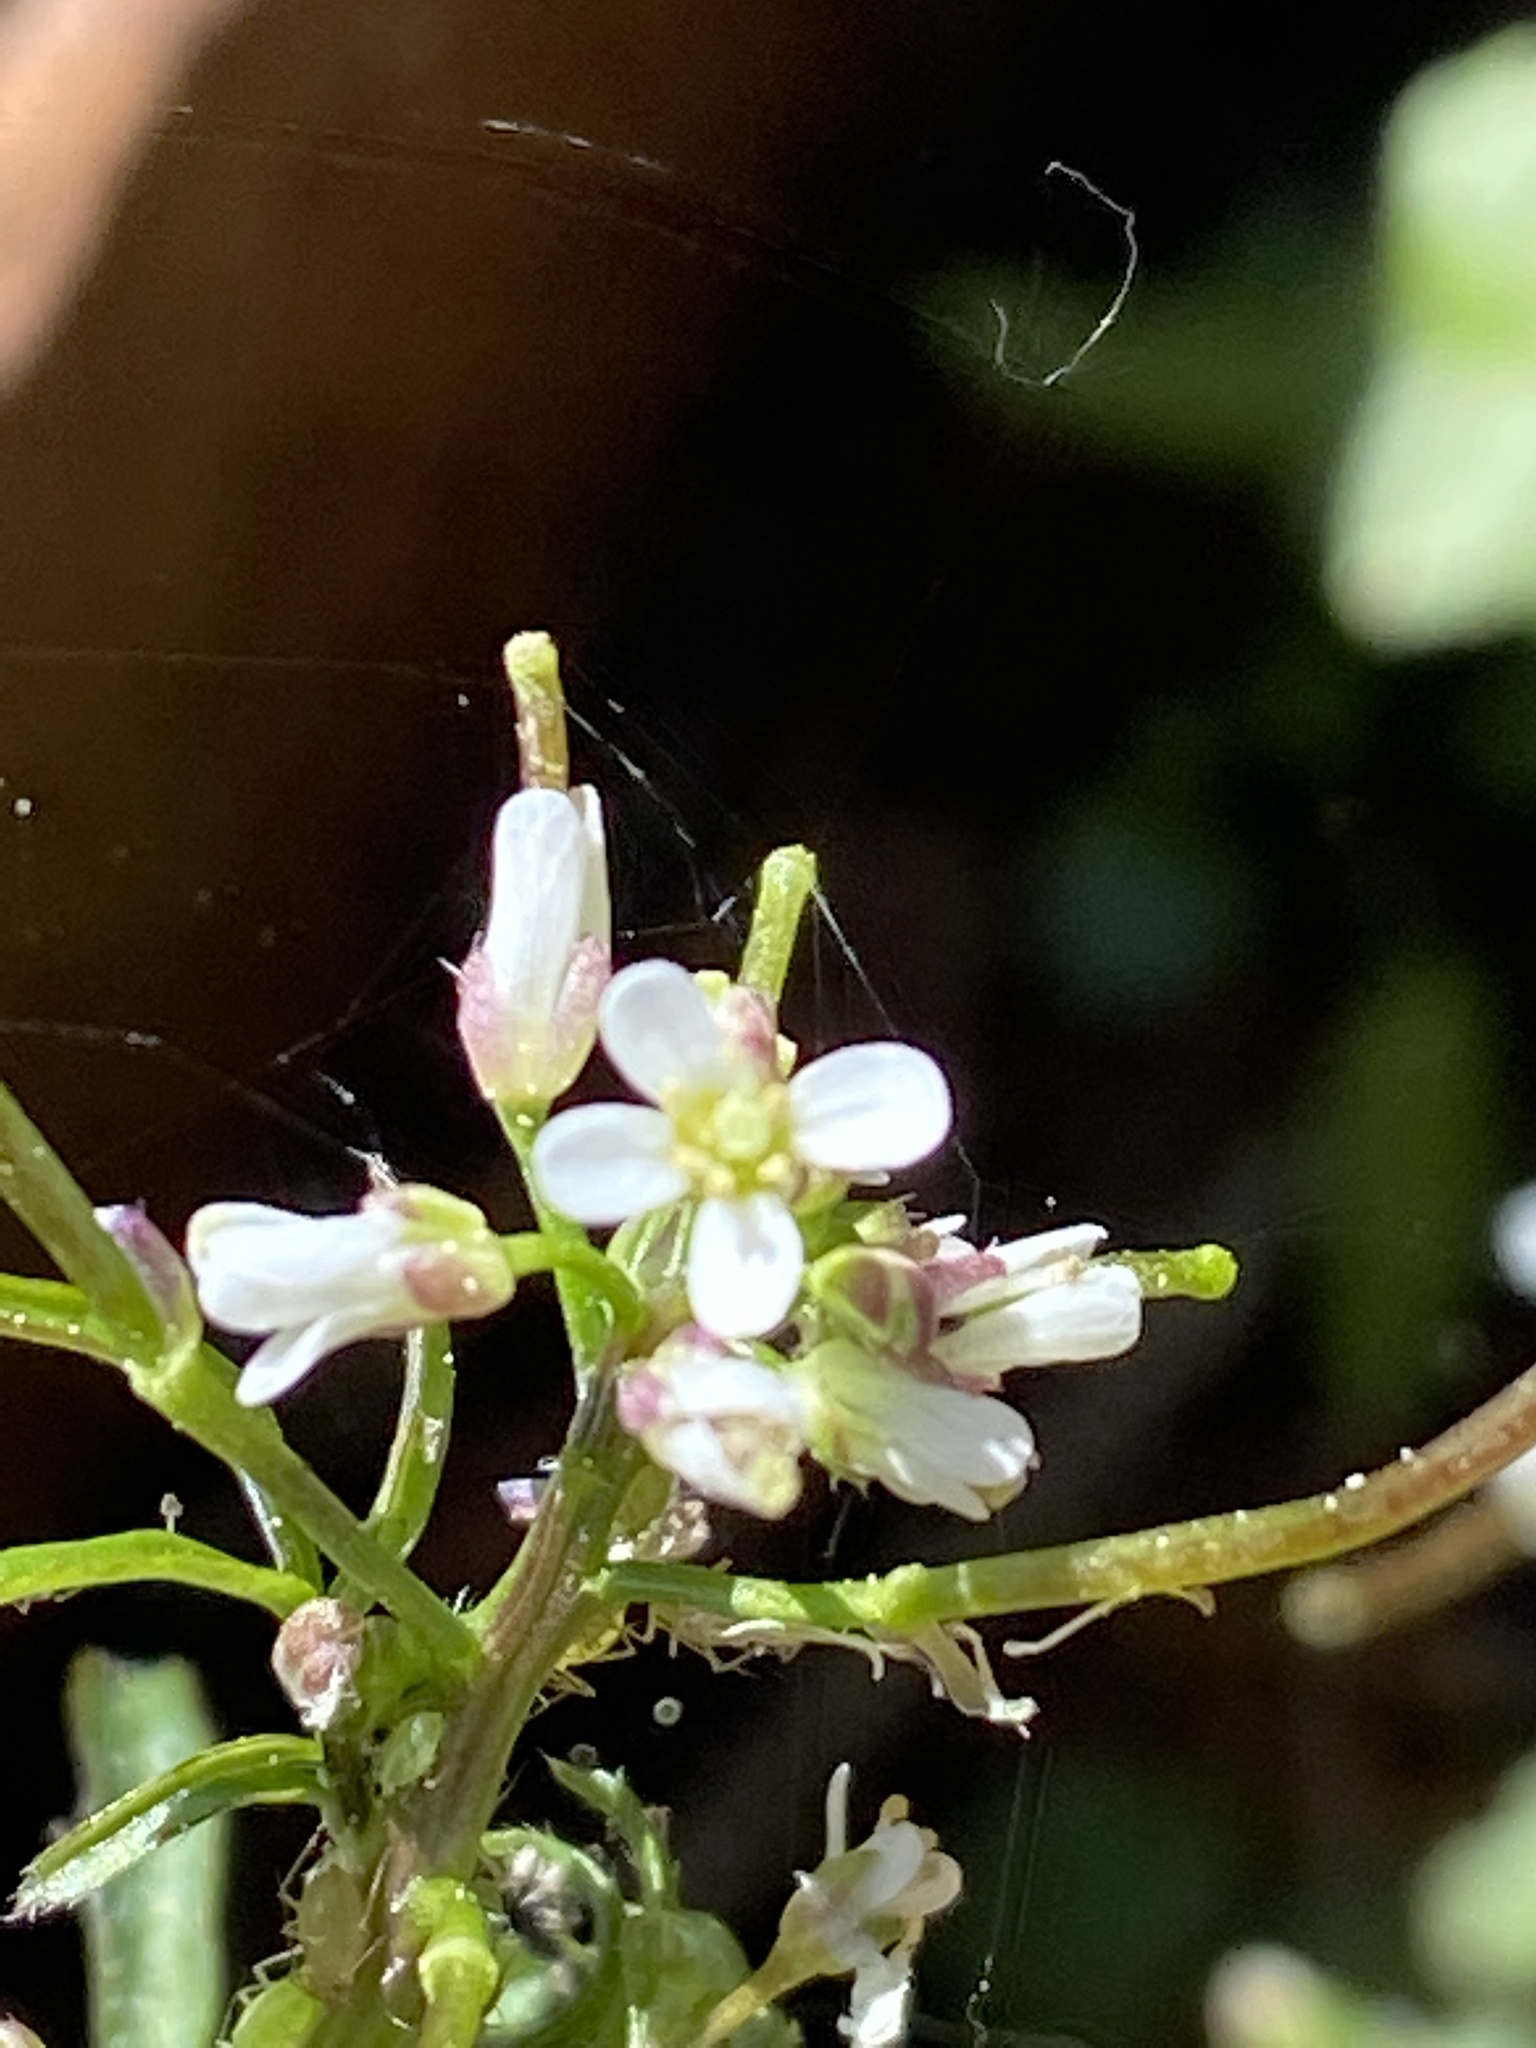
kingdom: Plantae
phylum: Tracheophyta
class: Magnoliopsida
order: Brassicales
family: Brassicaceae
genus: Cardamine
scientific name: Cardamine flexuosa
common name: Woodland bittercress
